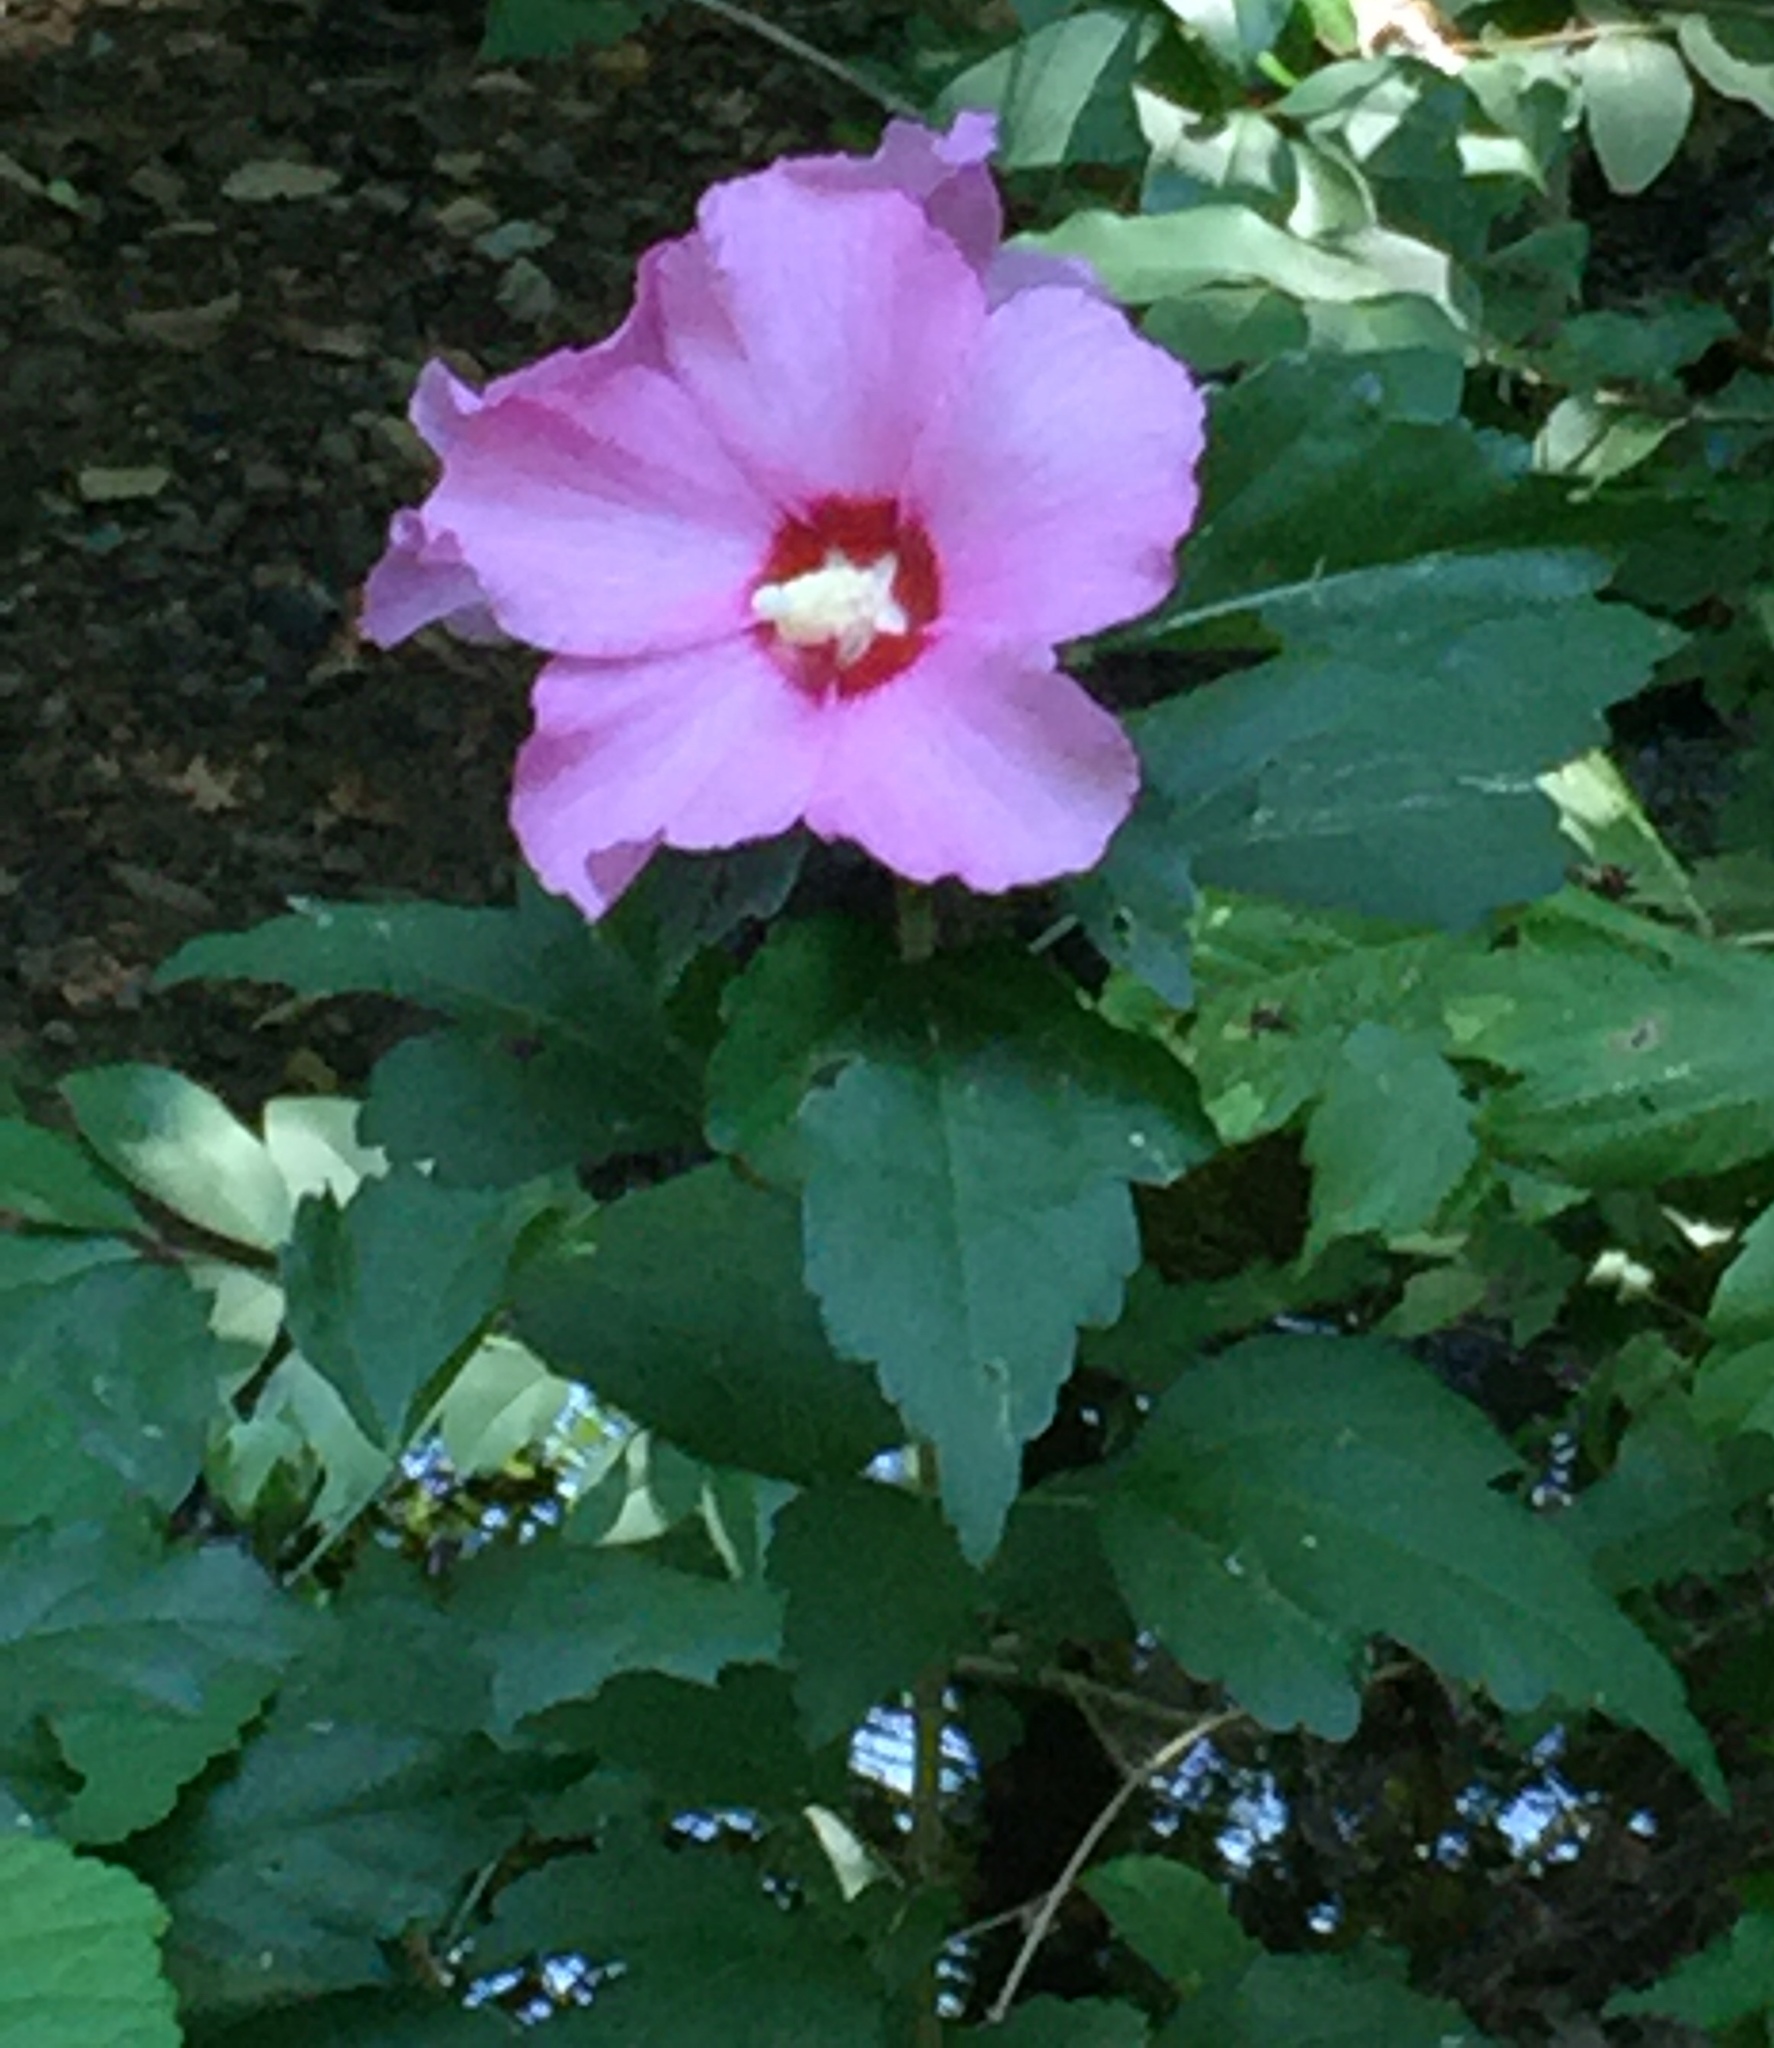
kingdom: Plantae
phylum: Tracheophyta
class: Magnoliopsida
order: Malvales
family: Malvaceae
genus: Hibiscus
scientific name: Hibiscus syriacus
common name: Syrian ketmia
